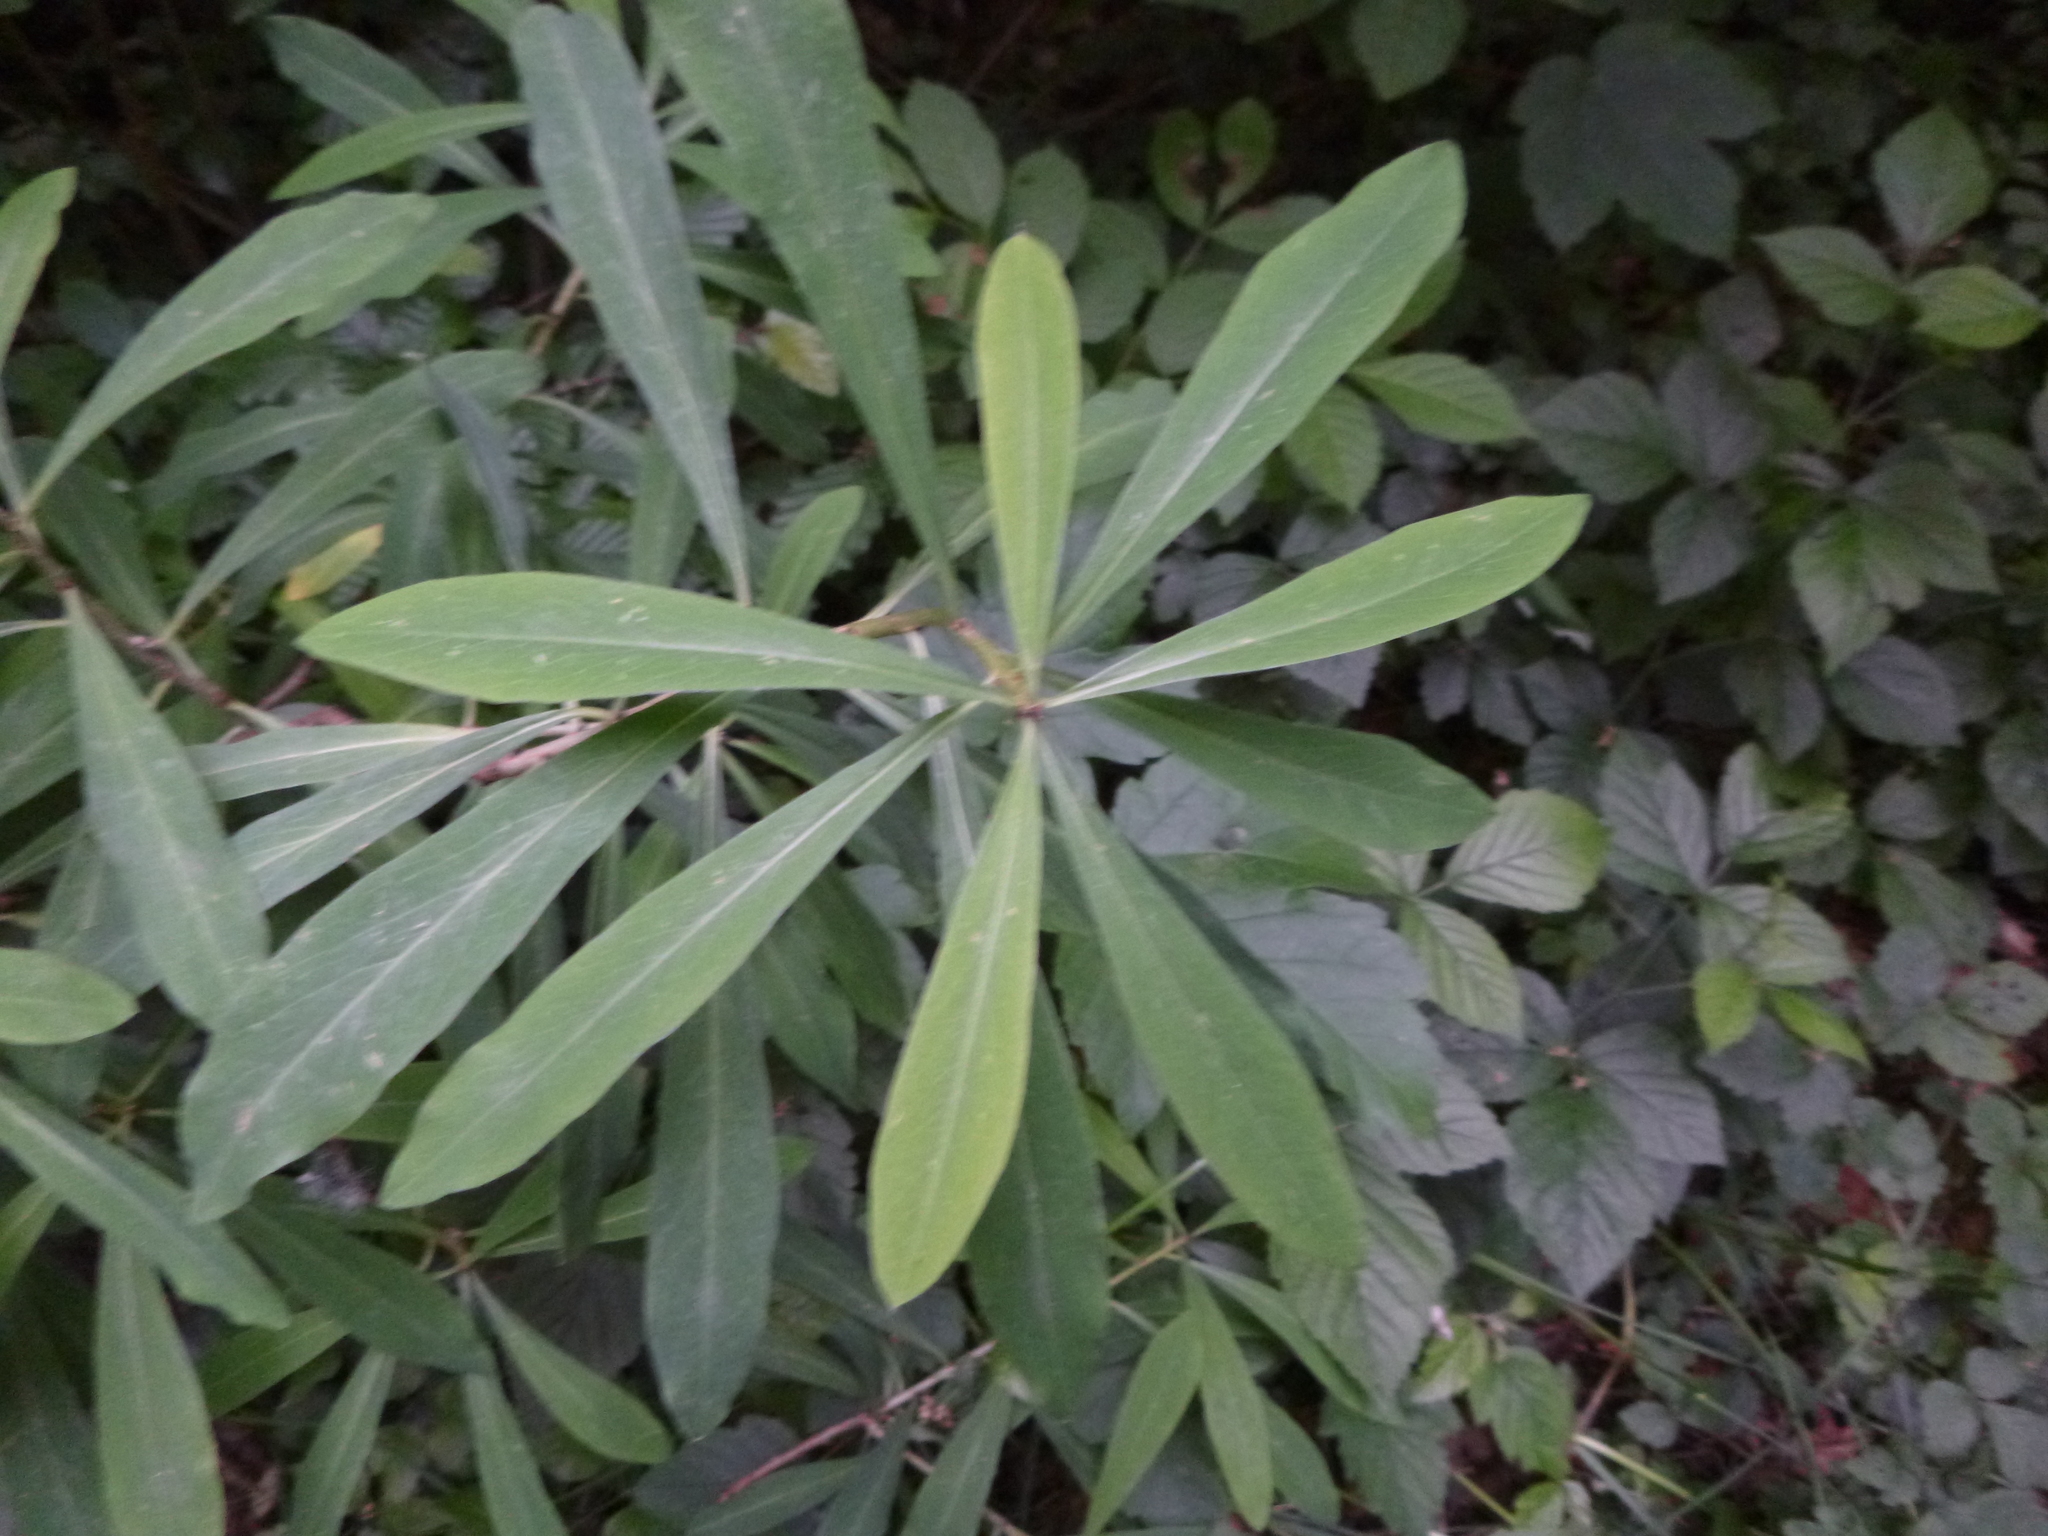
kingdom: Plantae
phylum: Tracheophyta
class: Magnoliopsida
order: Malvales
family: Thymelaeaceae
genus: Daphne
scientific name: Daphne mezereum
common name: Mezereon
